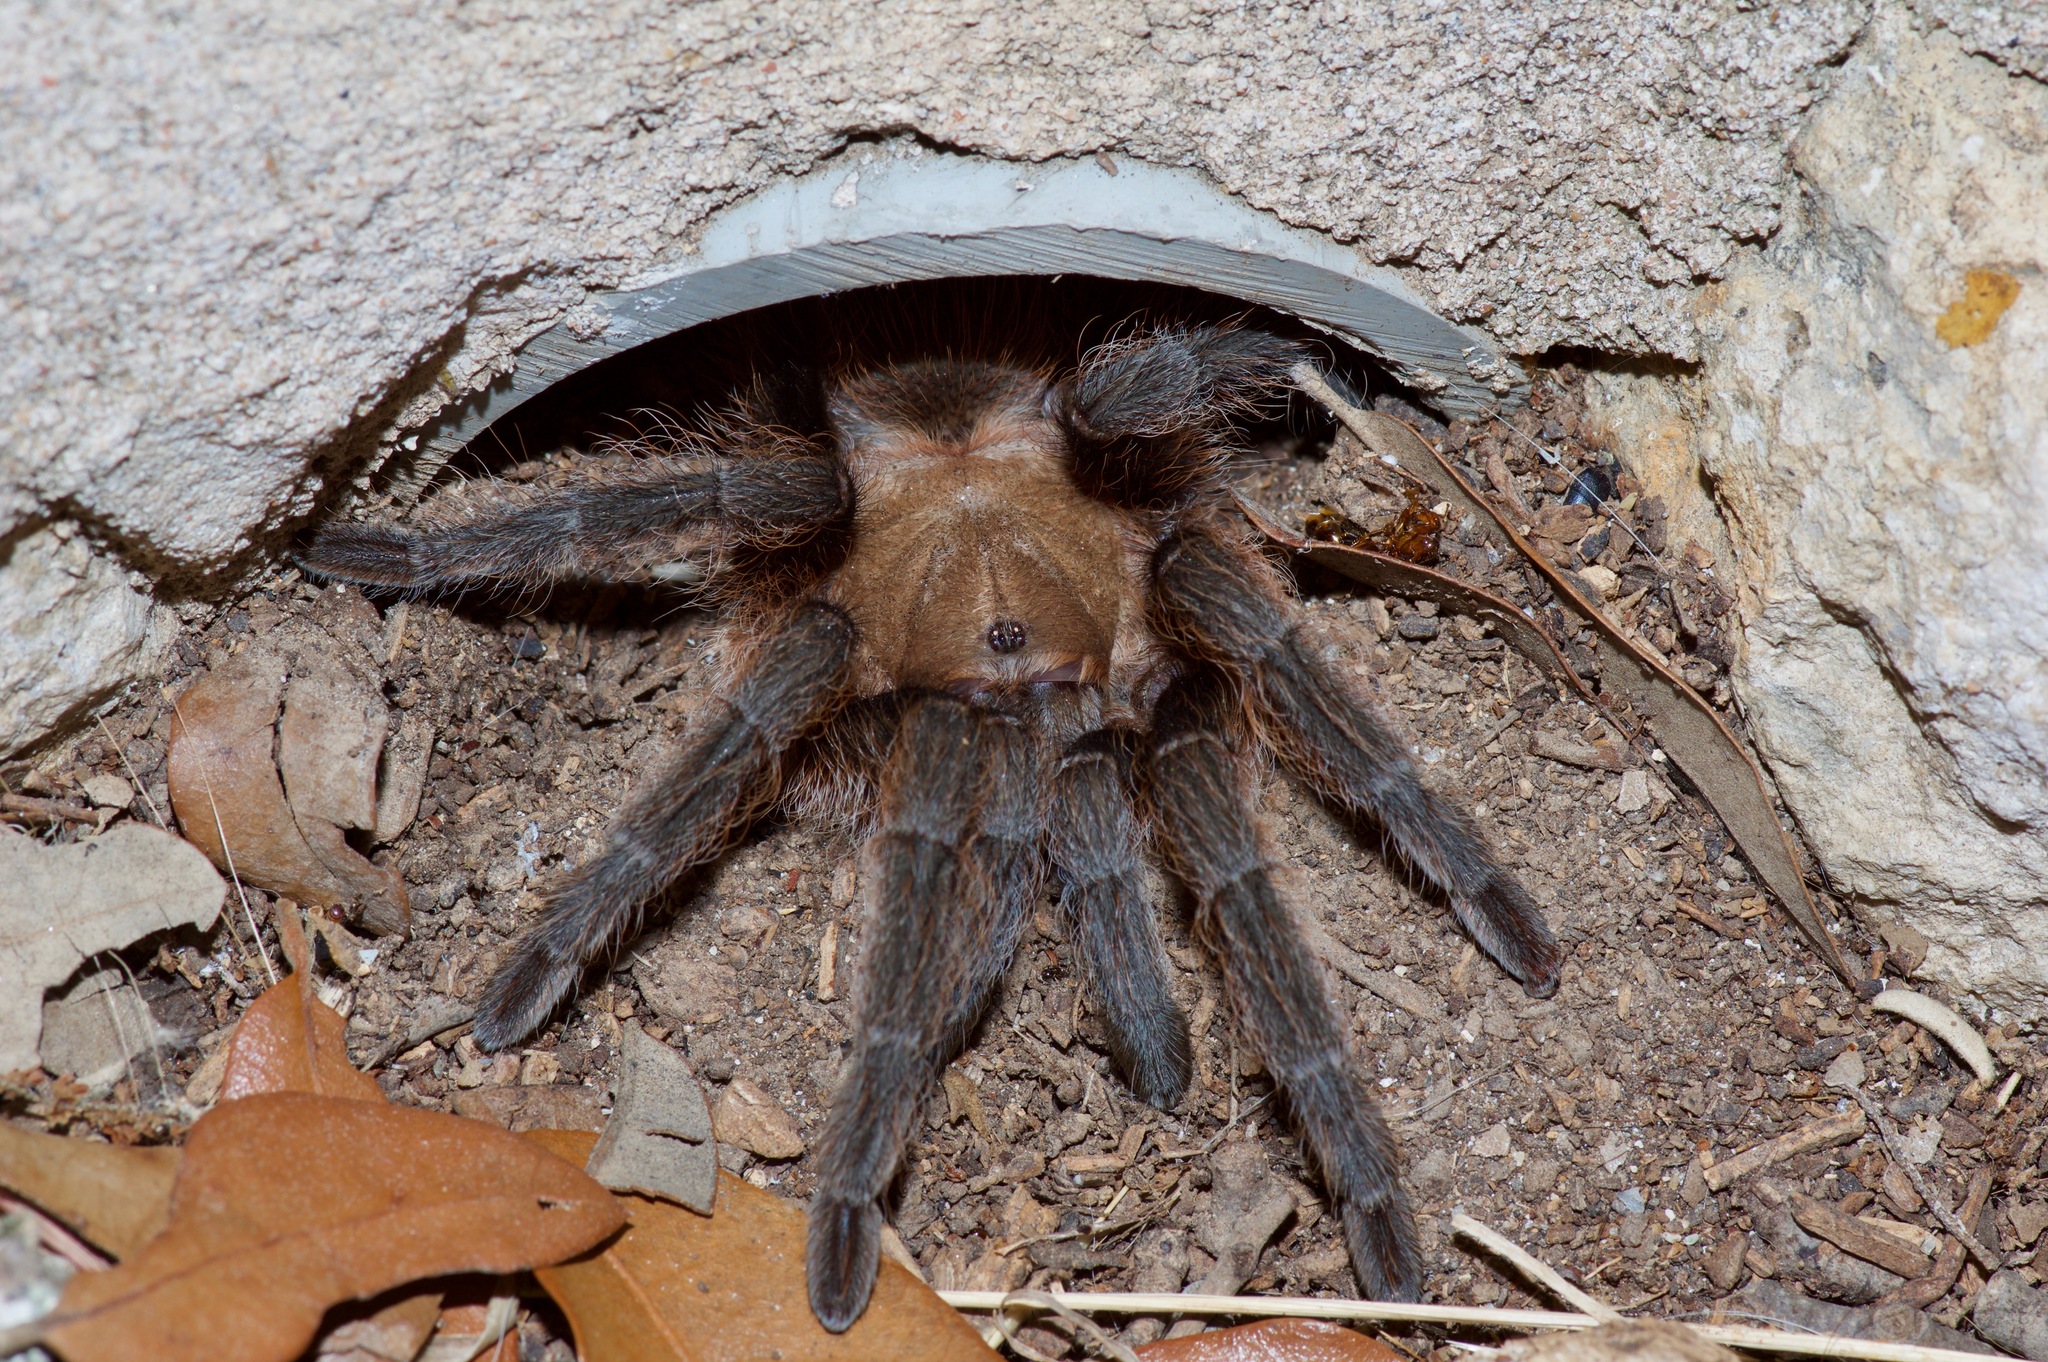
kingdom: Animalia
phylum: Arthropoda
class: Arachnida
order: Araneae
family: Theraphosidae
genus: Aphonopelma
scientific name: Aphonopelma hentzi
